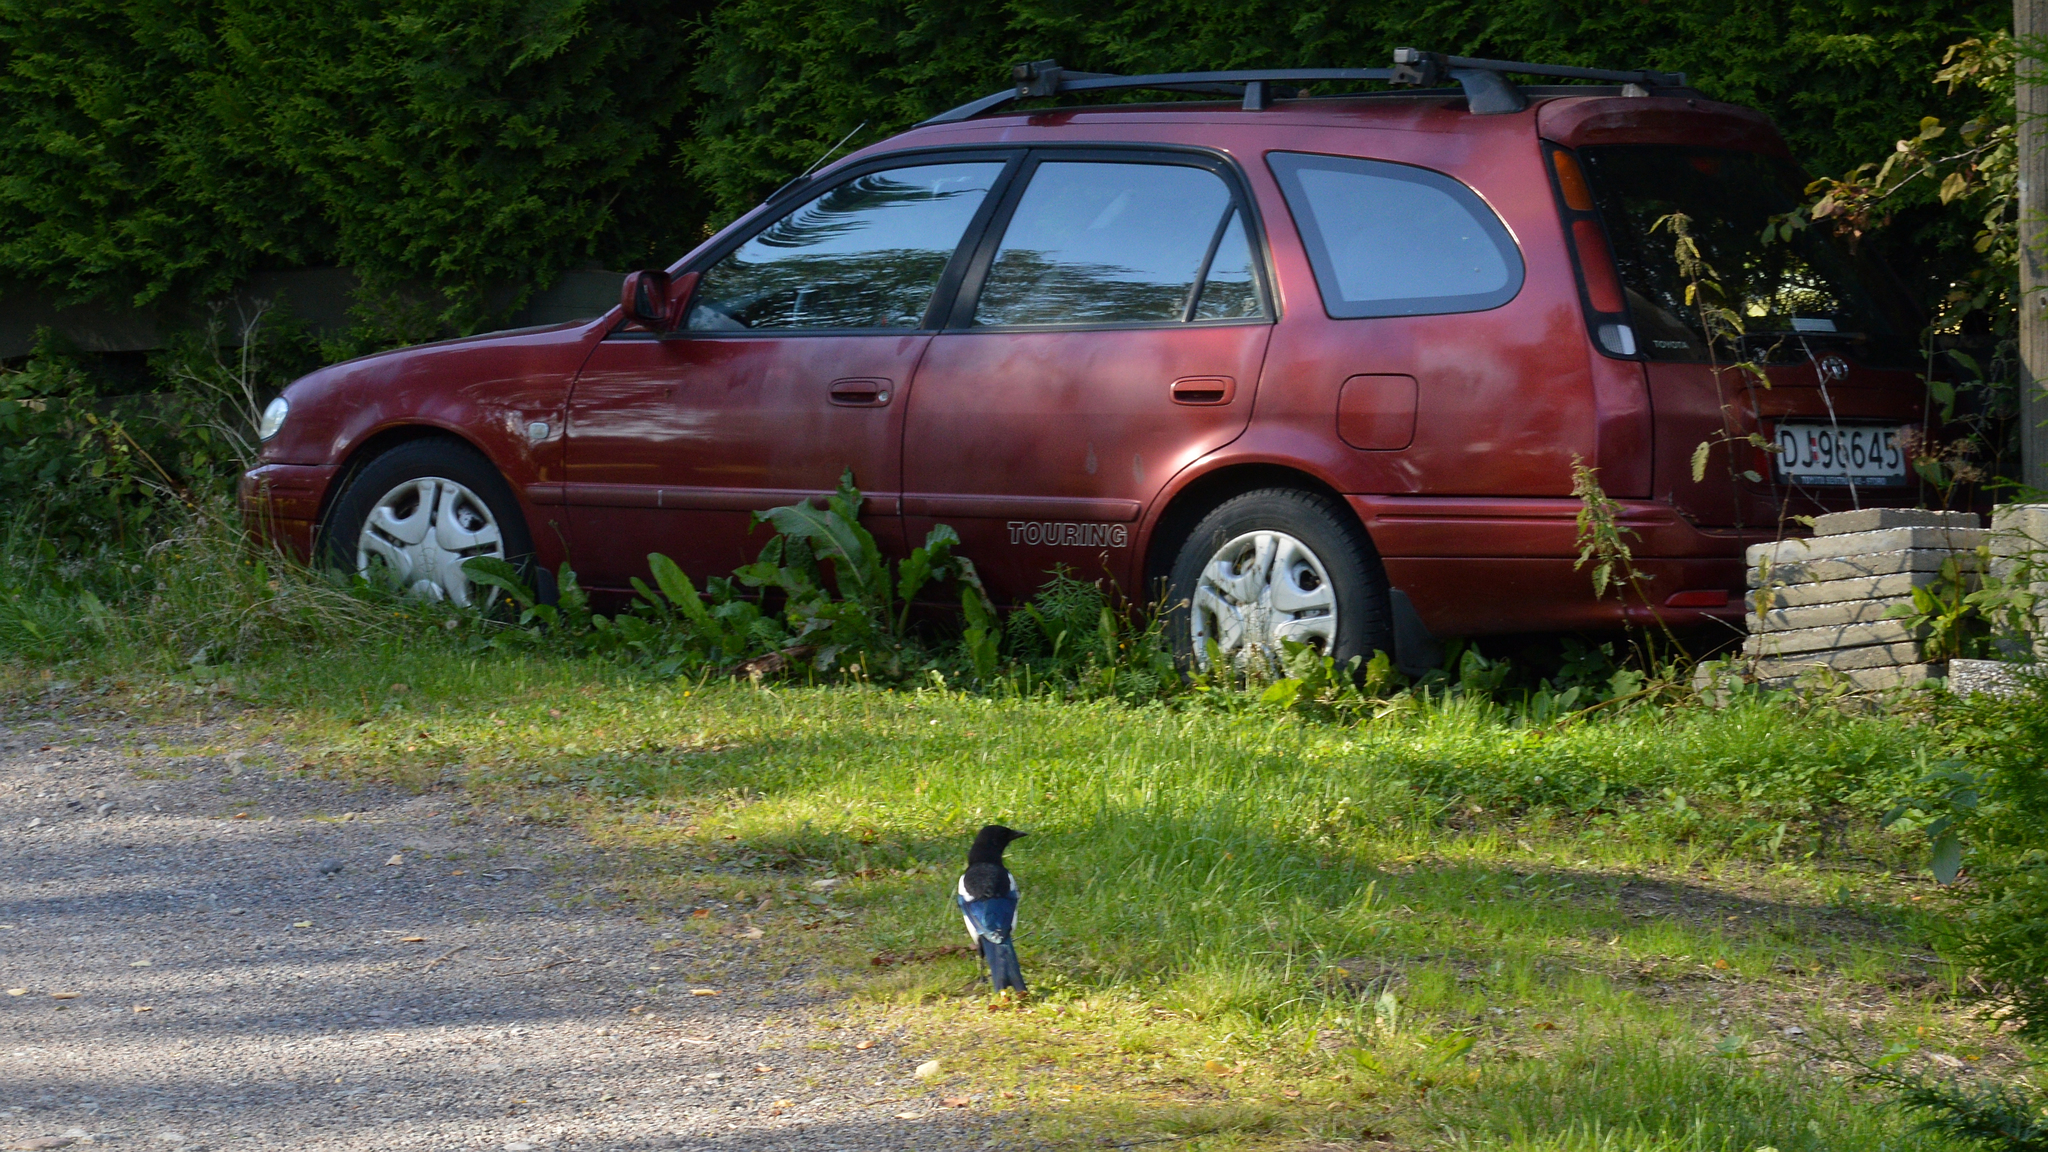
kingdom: Animalia
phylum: Chordata
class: Aves
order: Passeriformes
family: Corvidae
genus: Pica
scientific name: Pica pica
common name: Eurasian magpie
